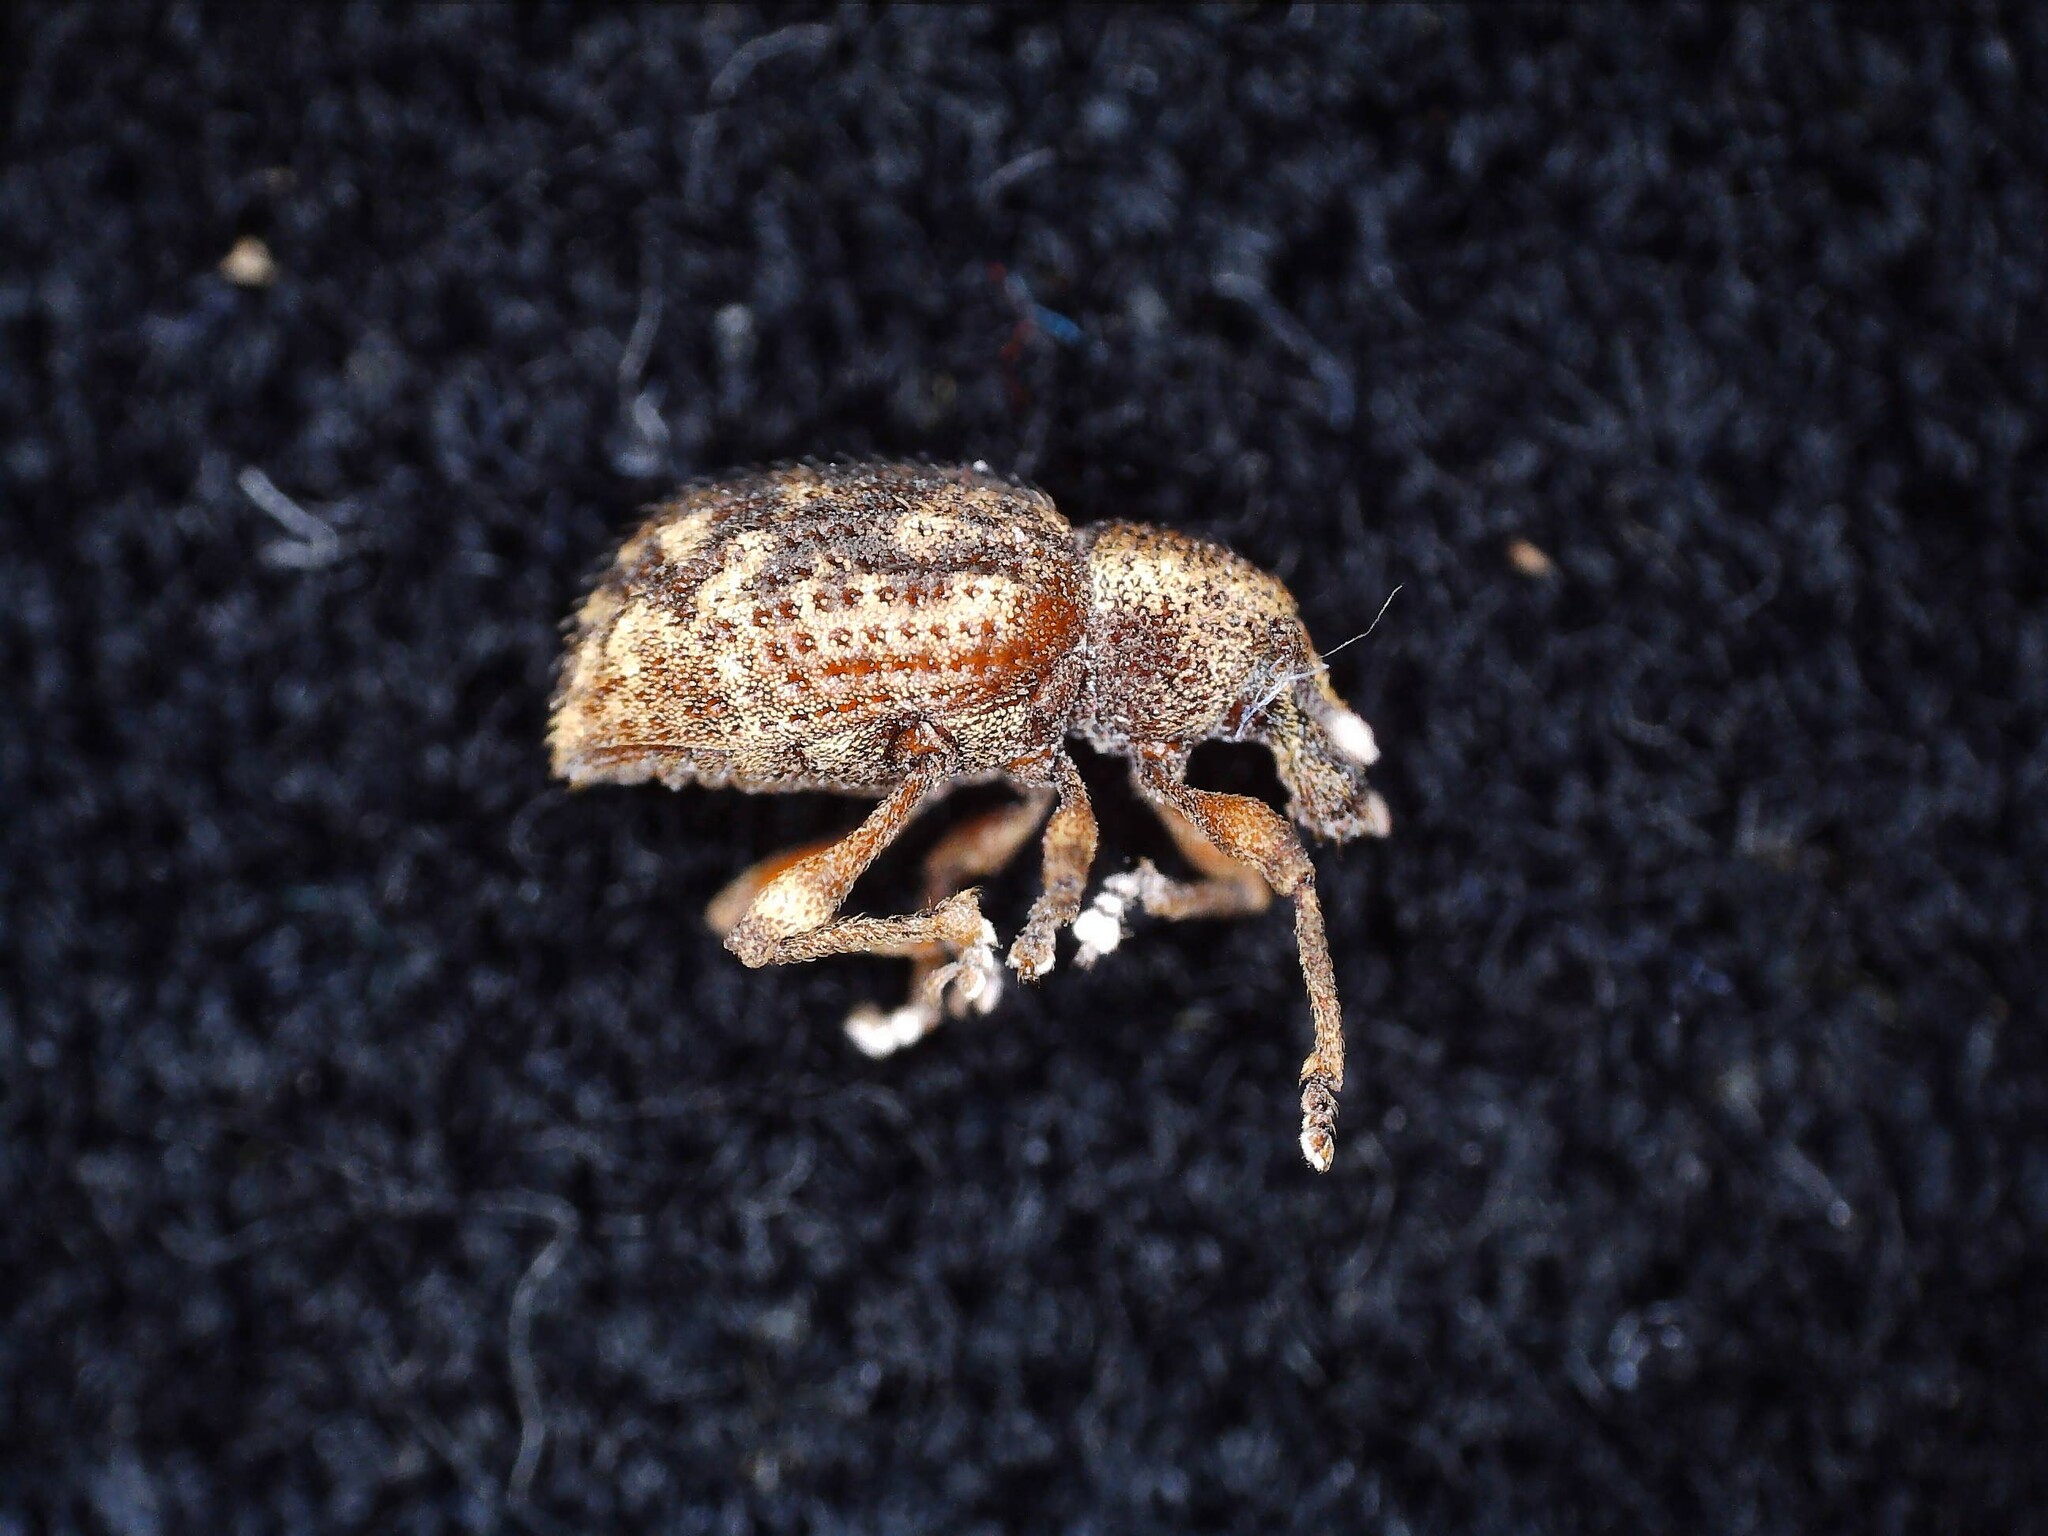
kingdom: Animalia
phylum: Arthropoda
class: Insecta
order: Coleoptera
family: Curculionidae
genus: Otiorhynchus
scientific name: Otiorhynchus carinatopunctatus
